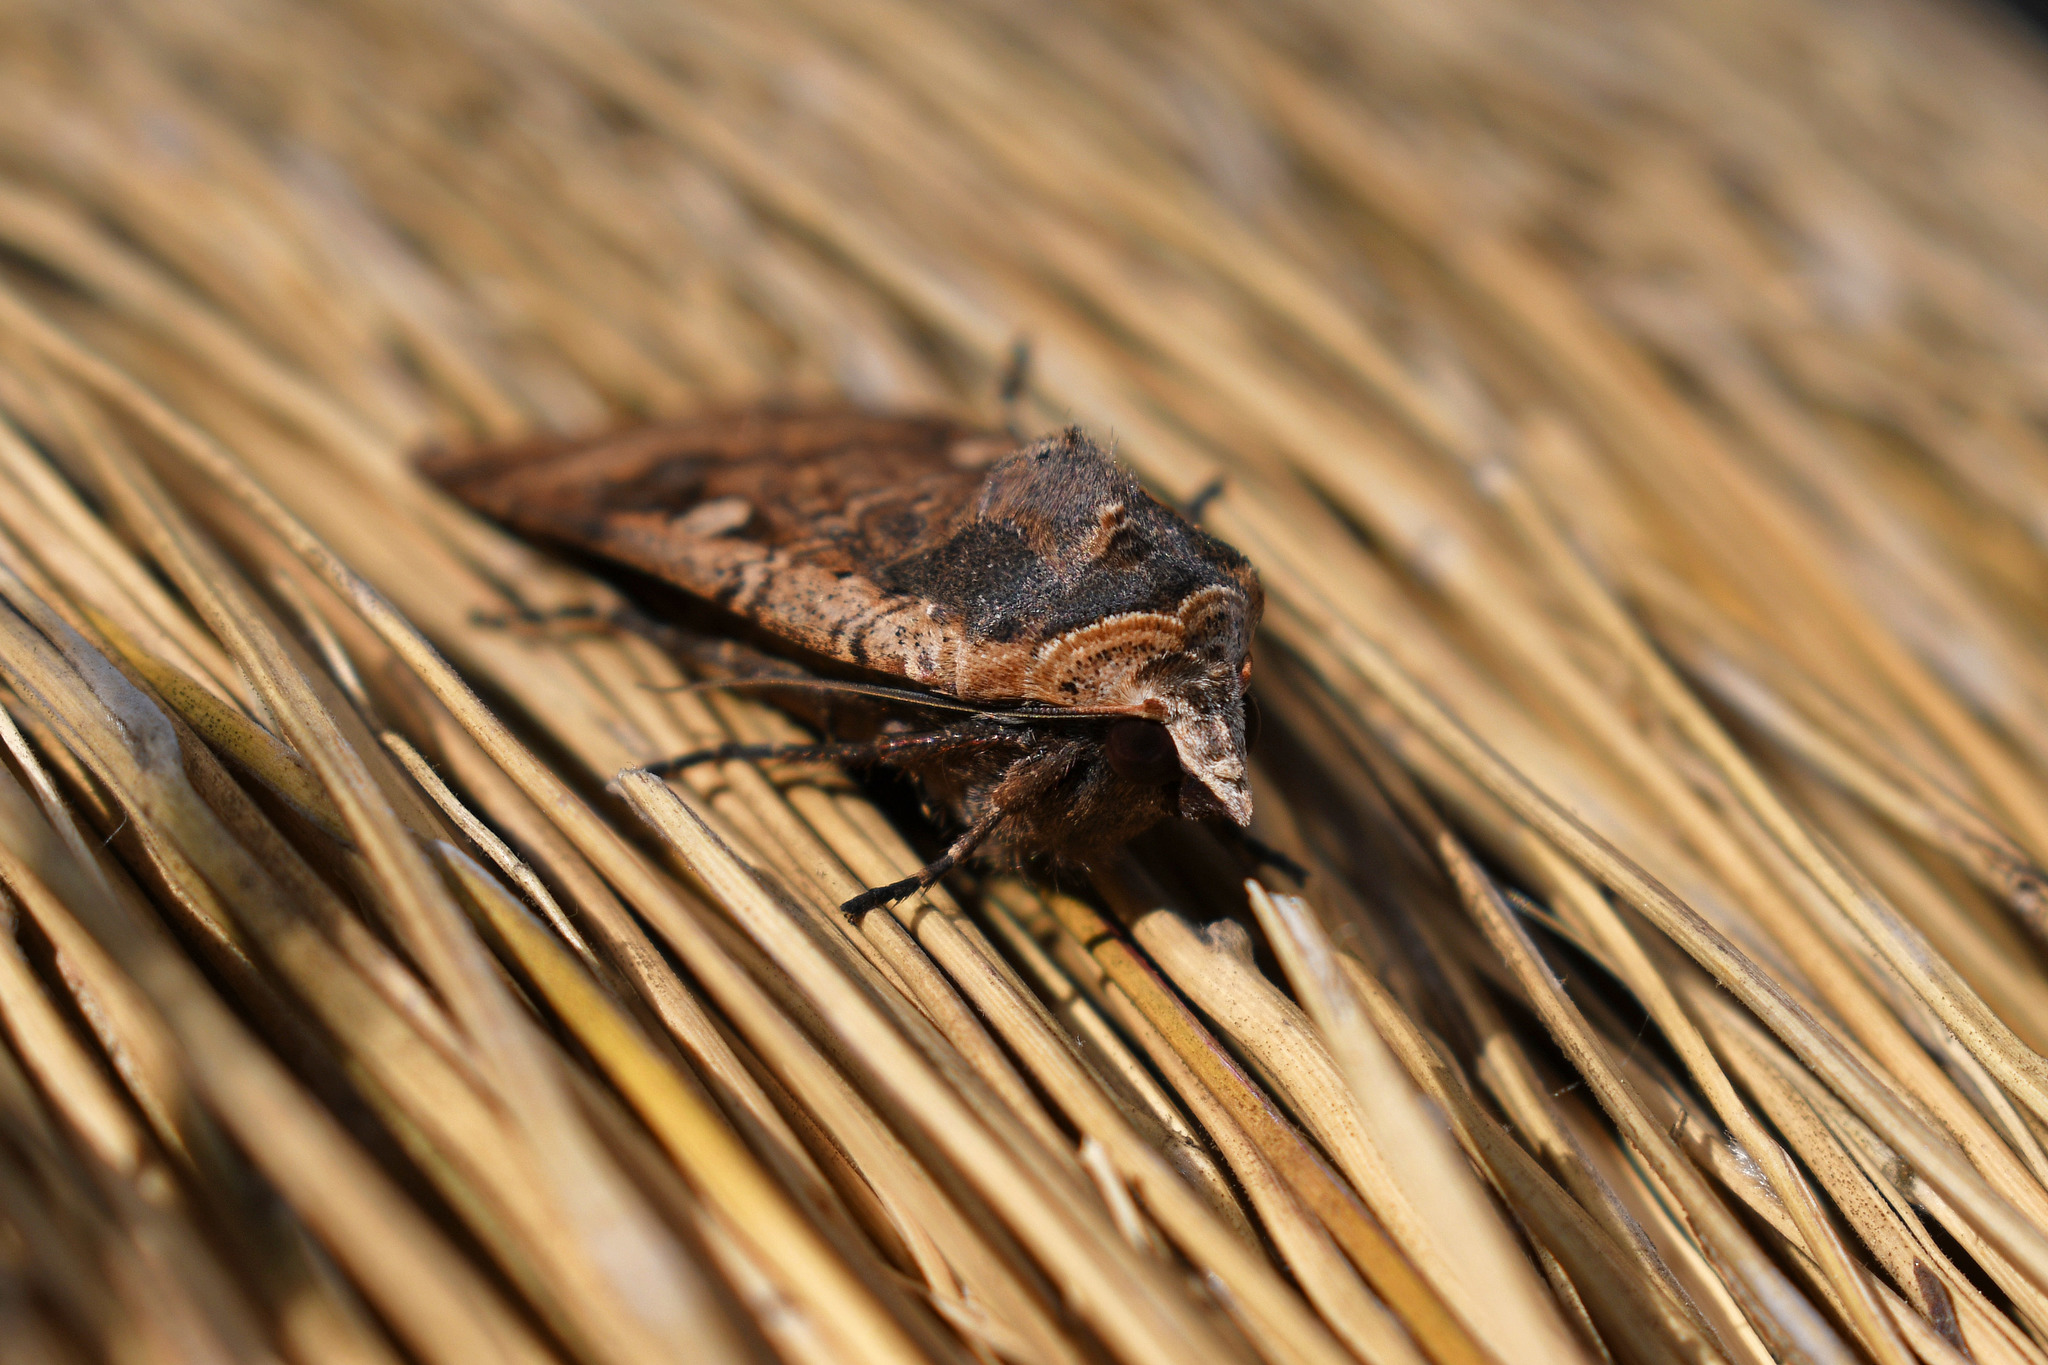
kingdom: Animalia
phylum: Arthropoda
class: Insecta
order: Lepidoptera
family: Noctuidae
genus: Noctua
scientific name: Noctua pronuba
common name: Large yellow underwing
